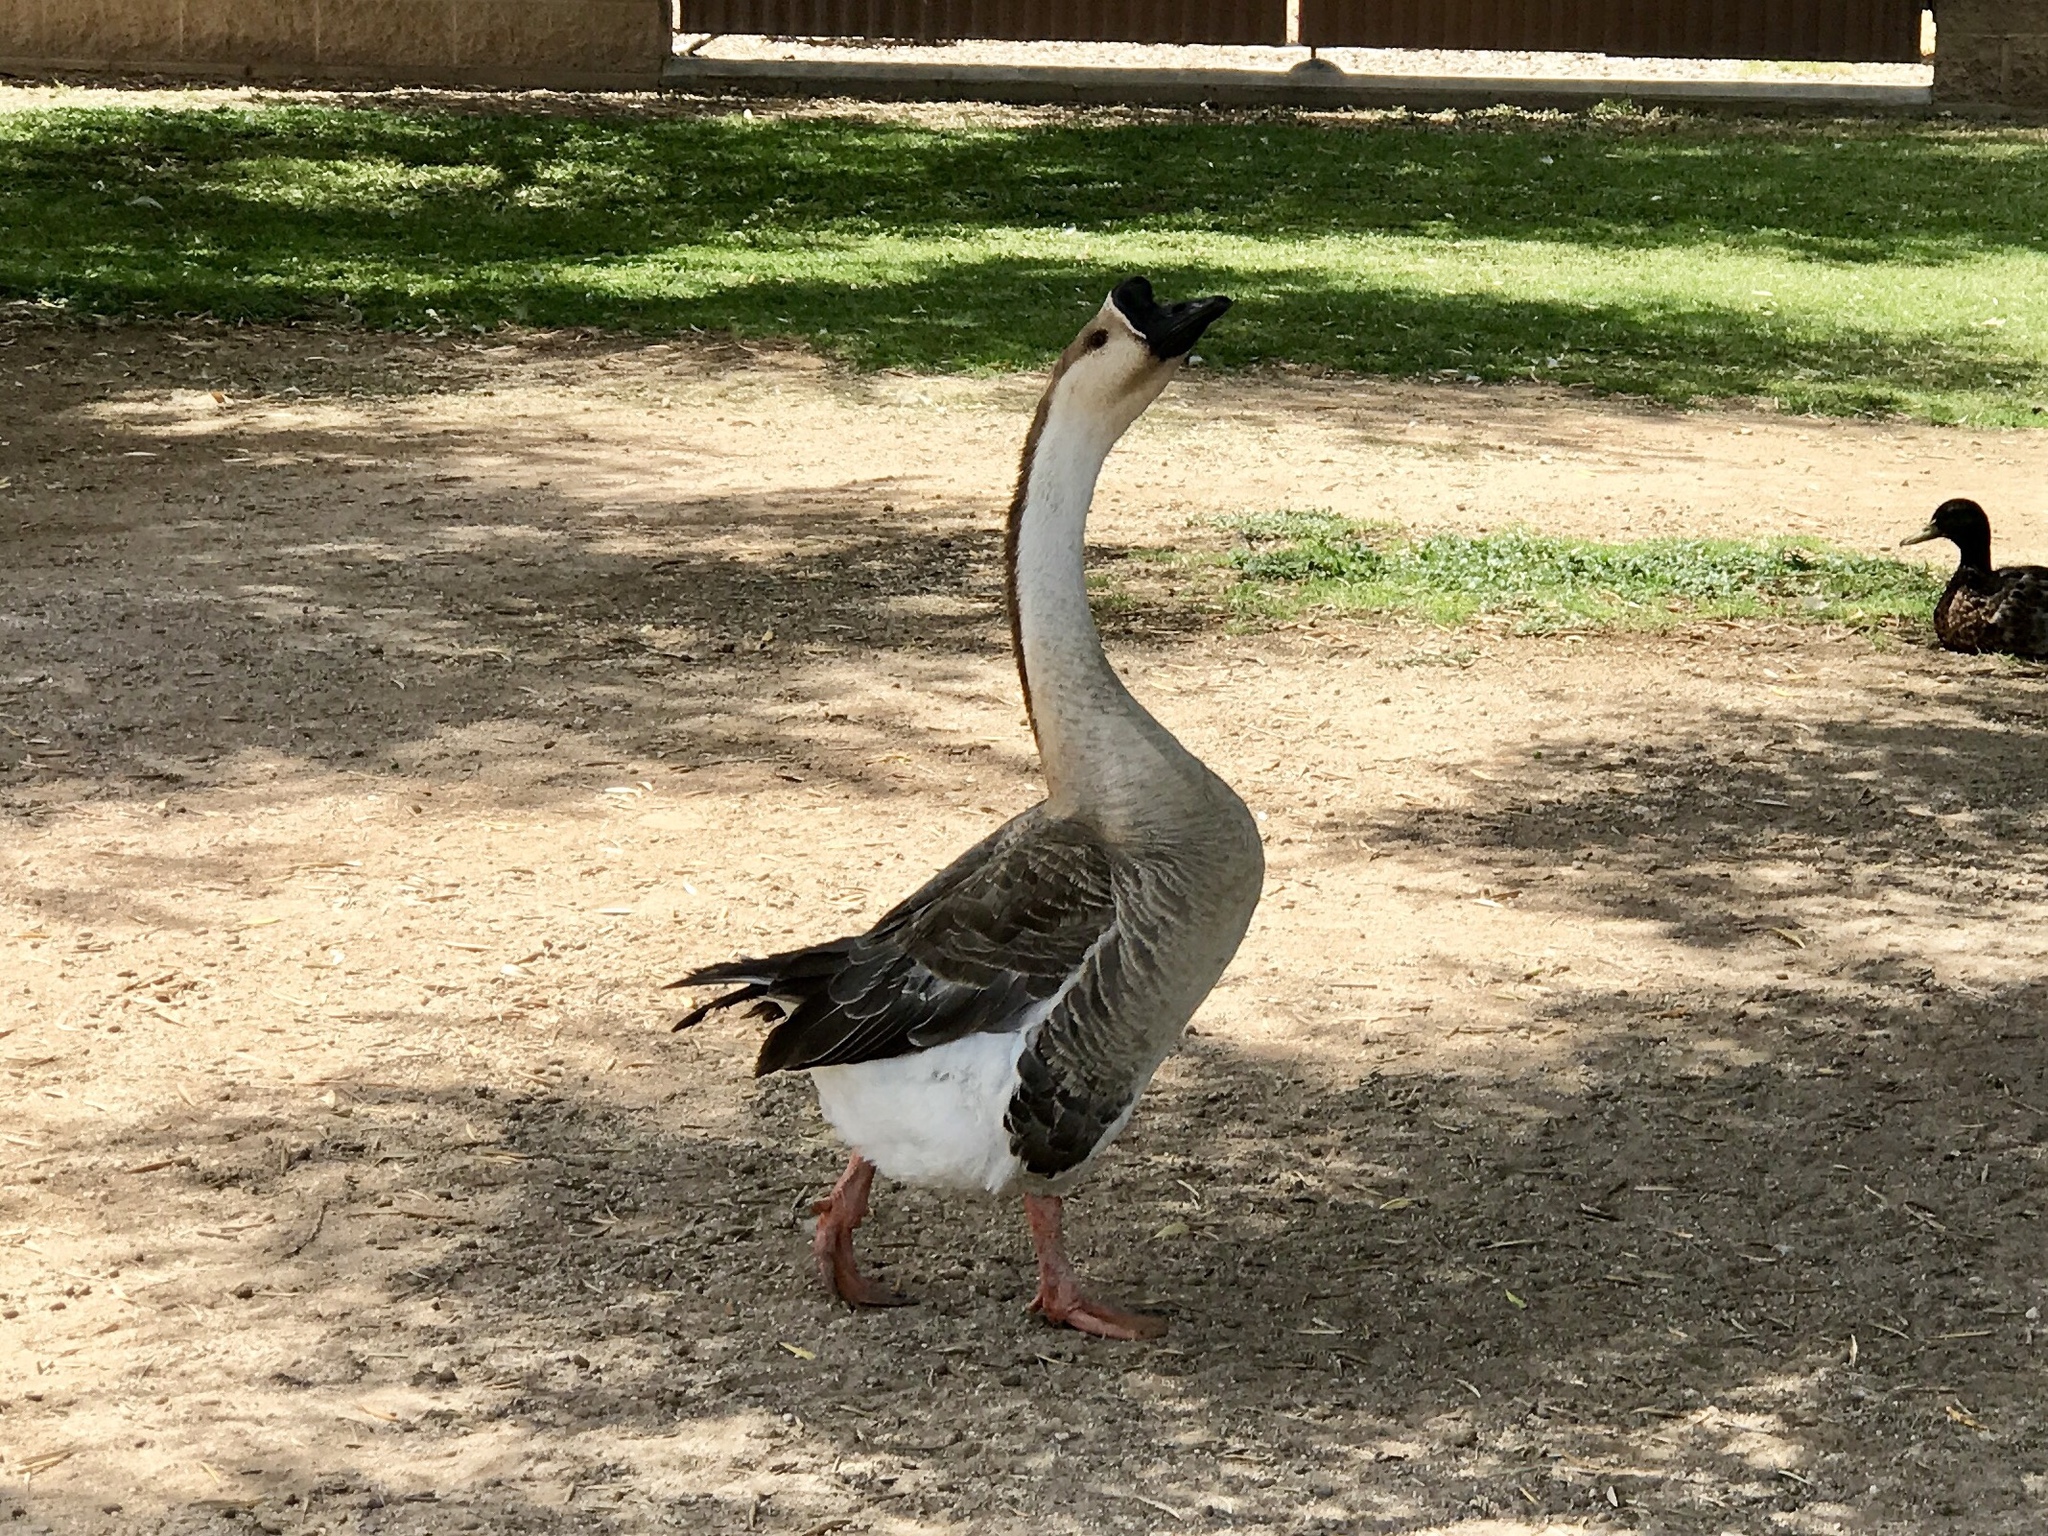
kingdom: Animalia
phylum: Chordata
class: Aves
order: Anseriformes
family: Anatidae
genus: Anser
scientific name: Anser cygnoides
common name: Swan goose
